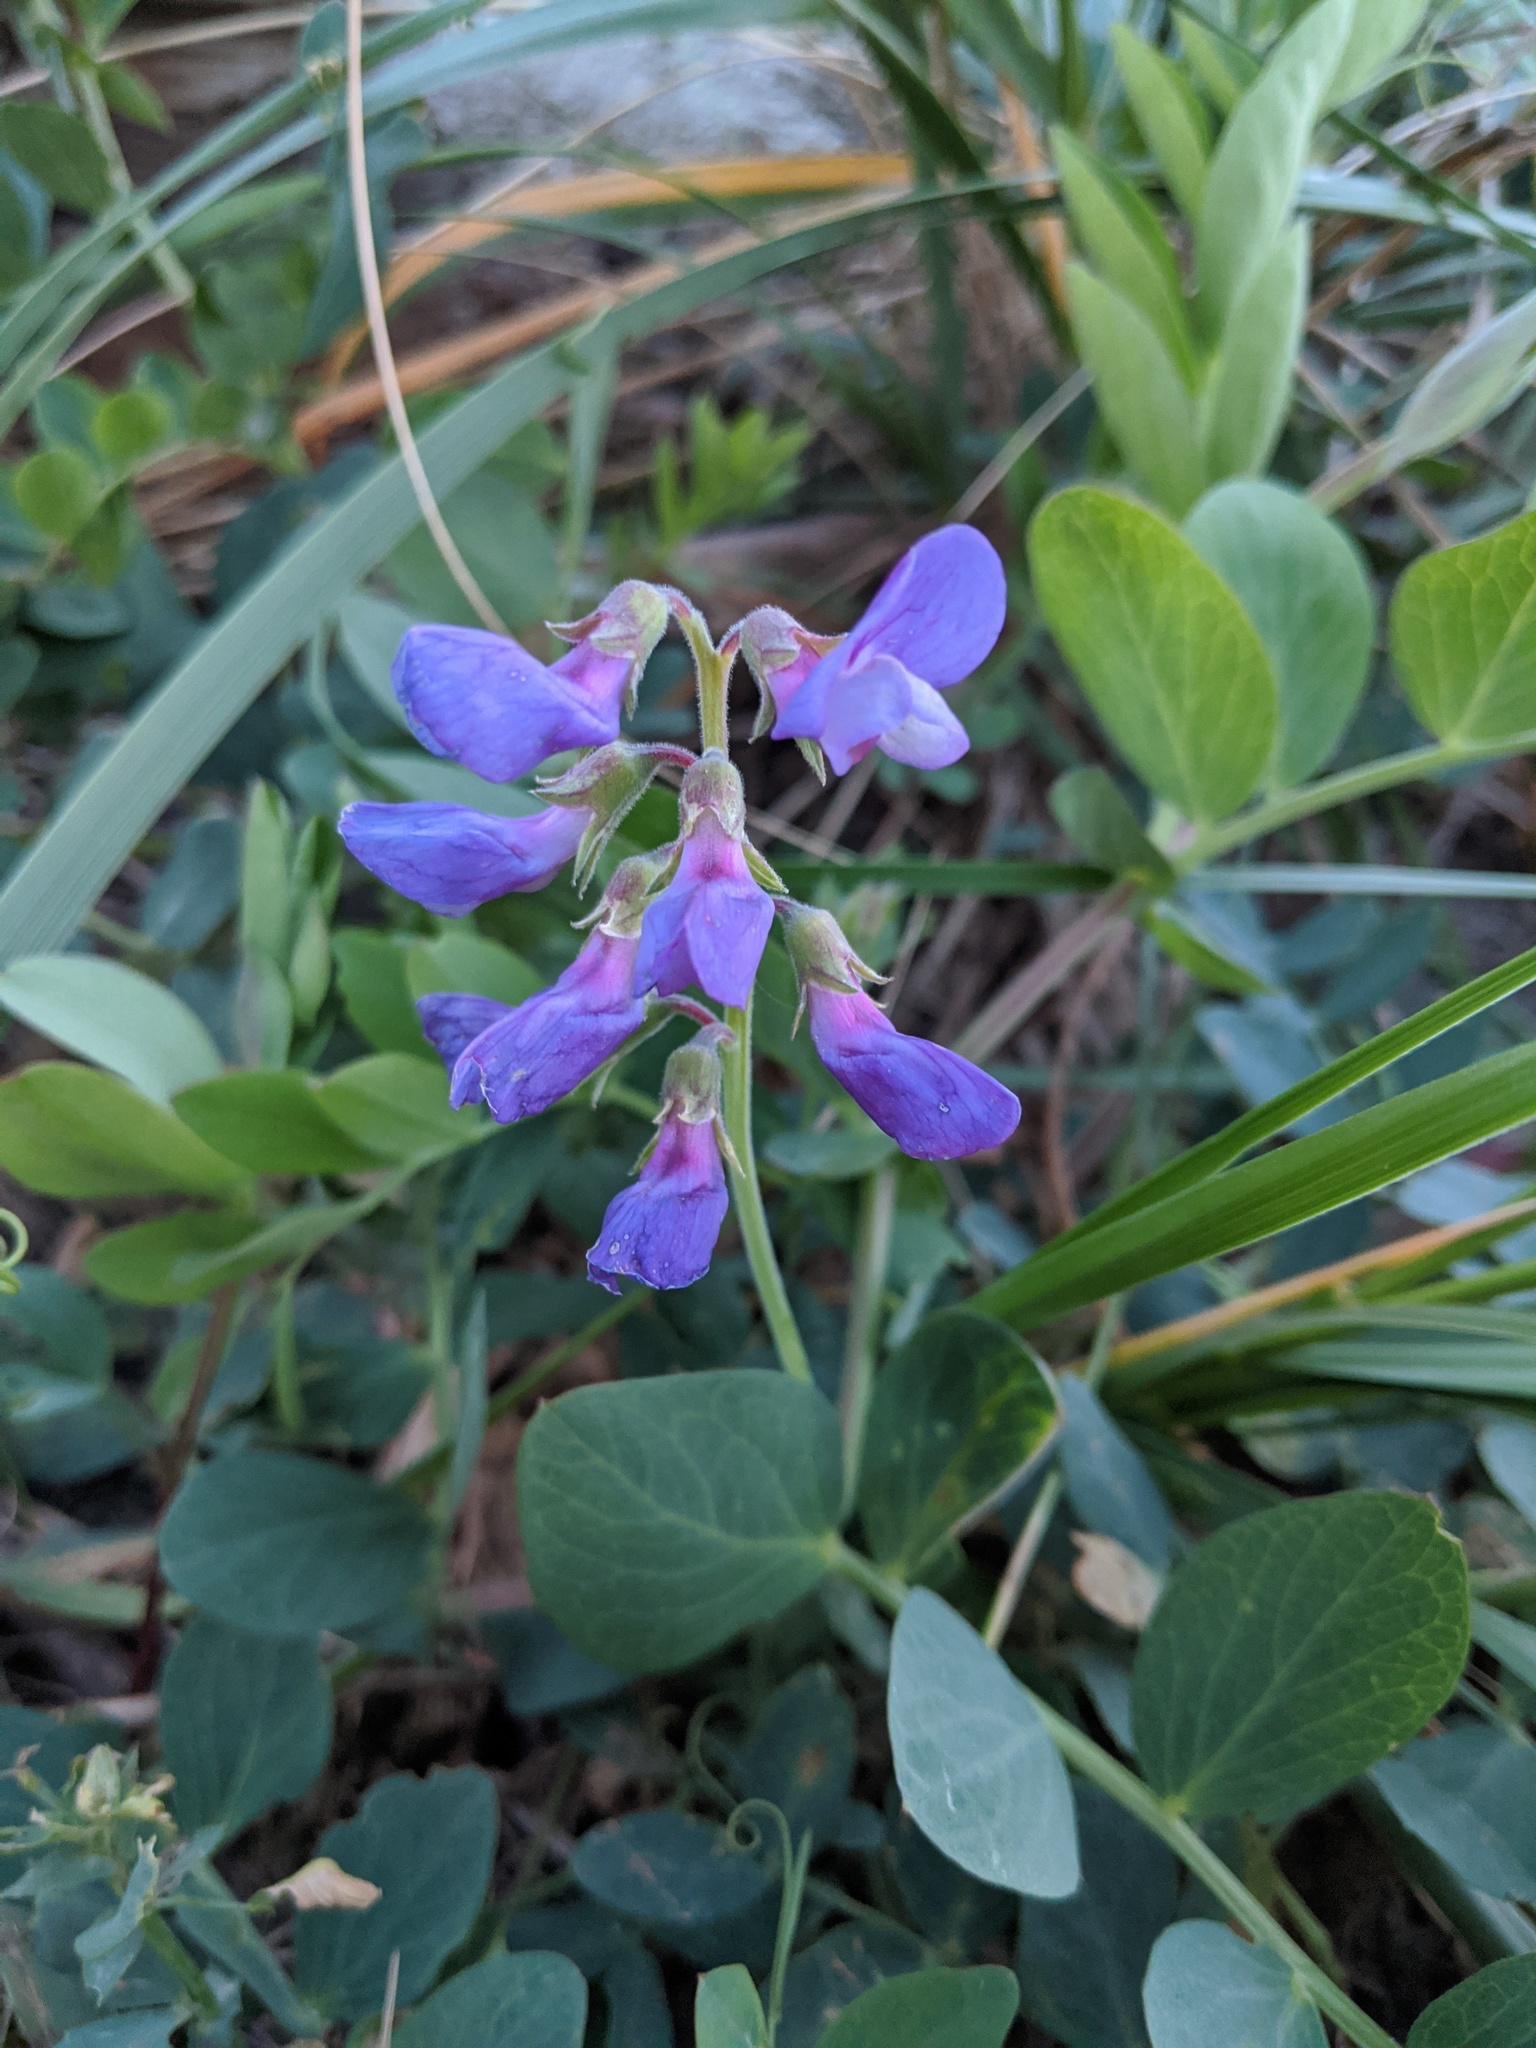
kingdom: Plantae
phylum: Tracheophyta
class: Magnoliopsida
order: Fabales
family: Fabaceae
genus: Lathyrus
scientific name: Lathyrus japonicus
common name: Sea pea
